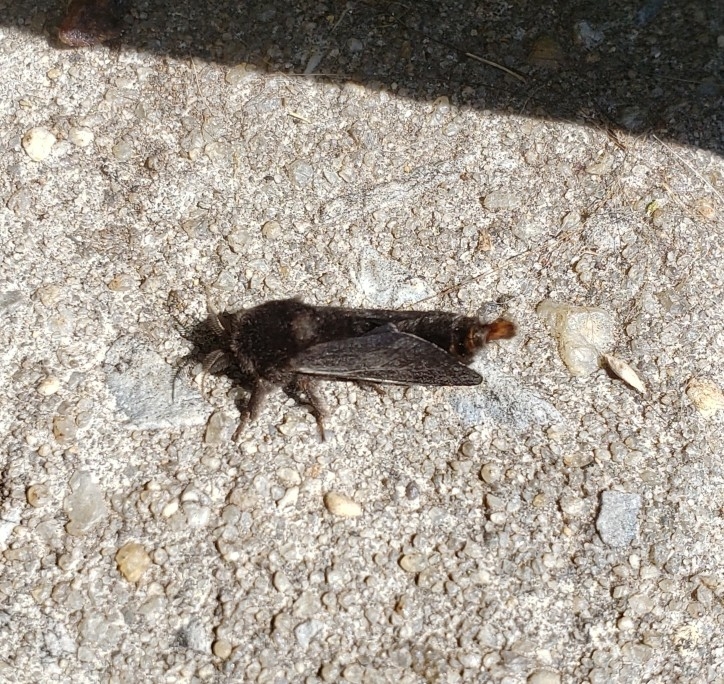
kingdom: Animalia
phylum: Arthropoda
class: Insecta
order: Lepidoptera
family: Psychidae
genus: Thyridopteryx
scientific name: Thyridopteryx ephemeraeformis
